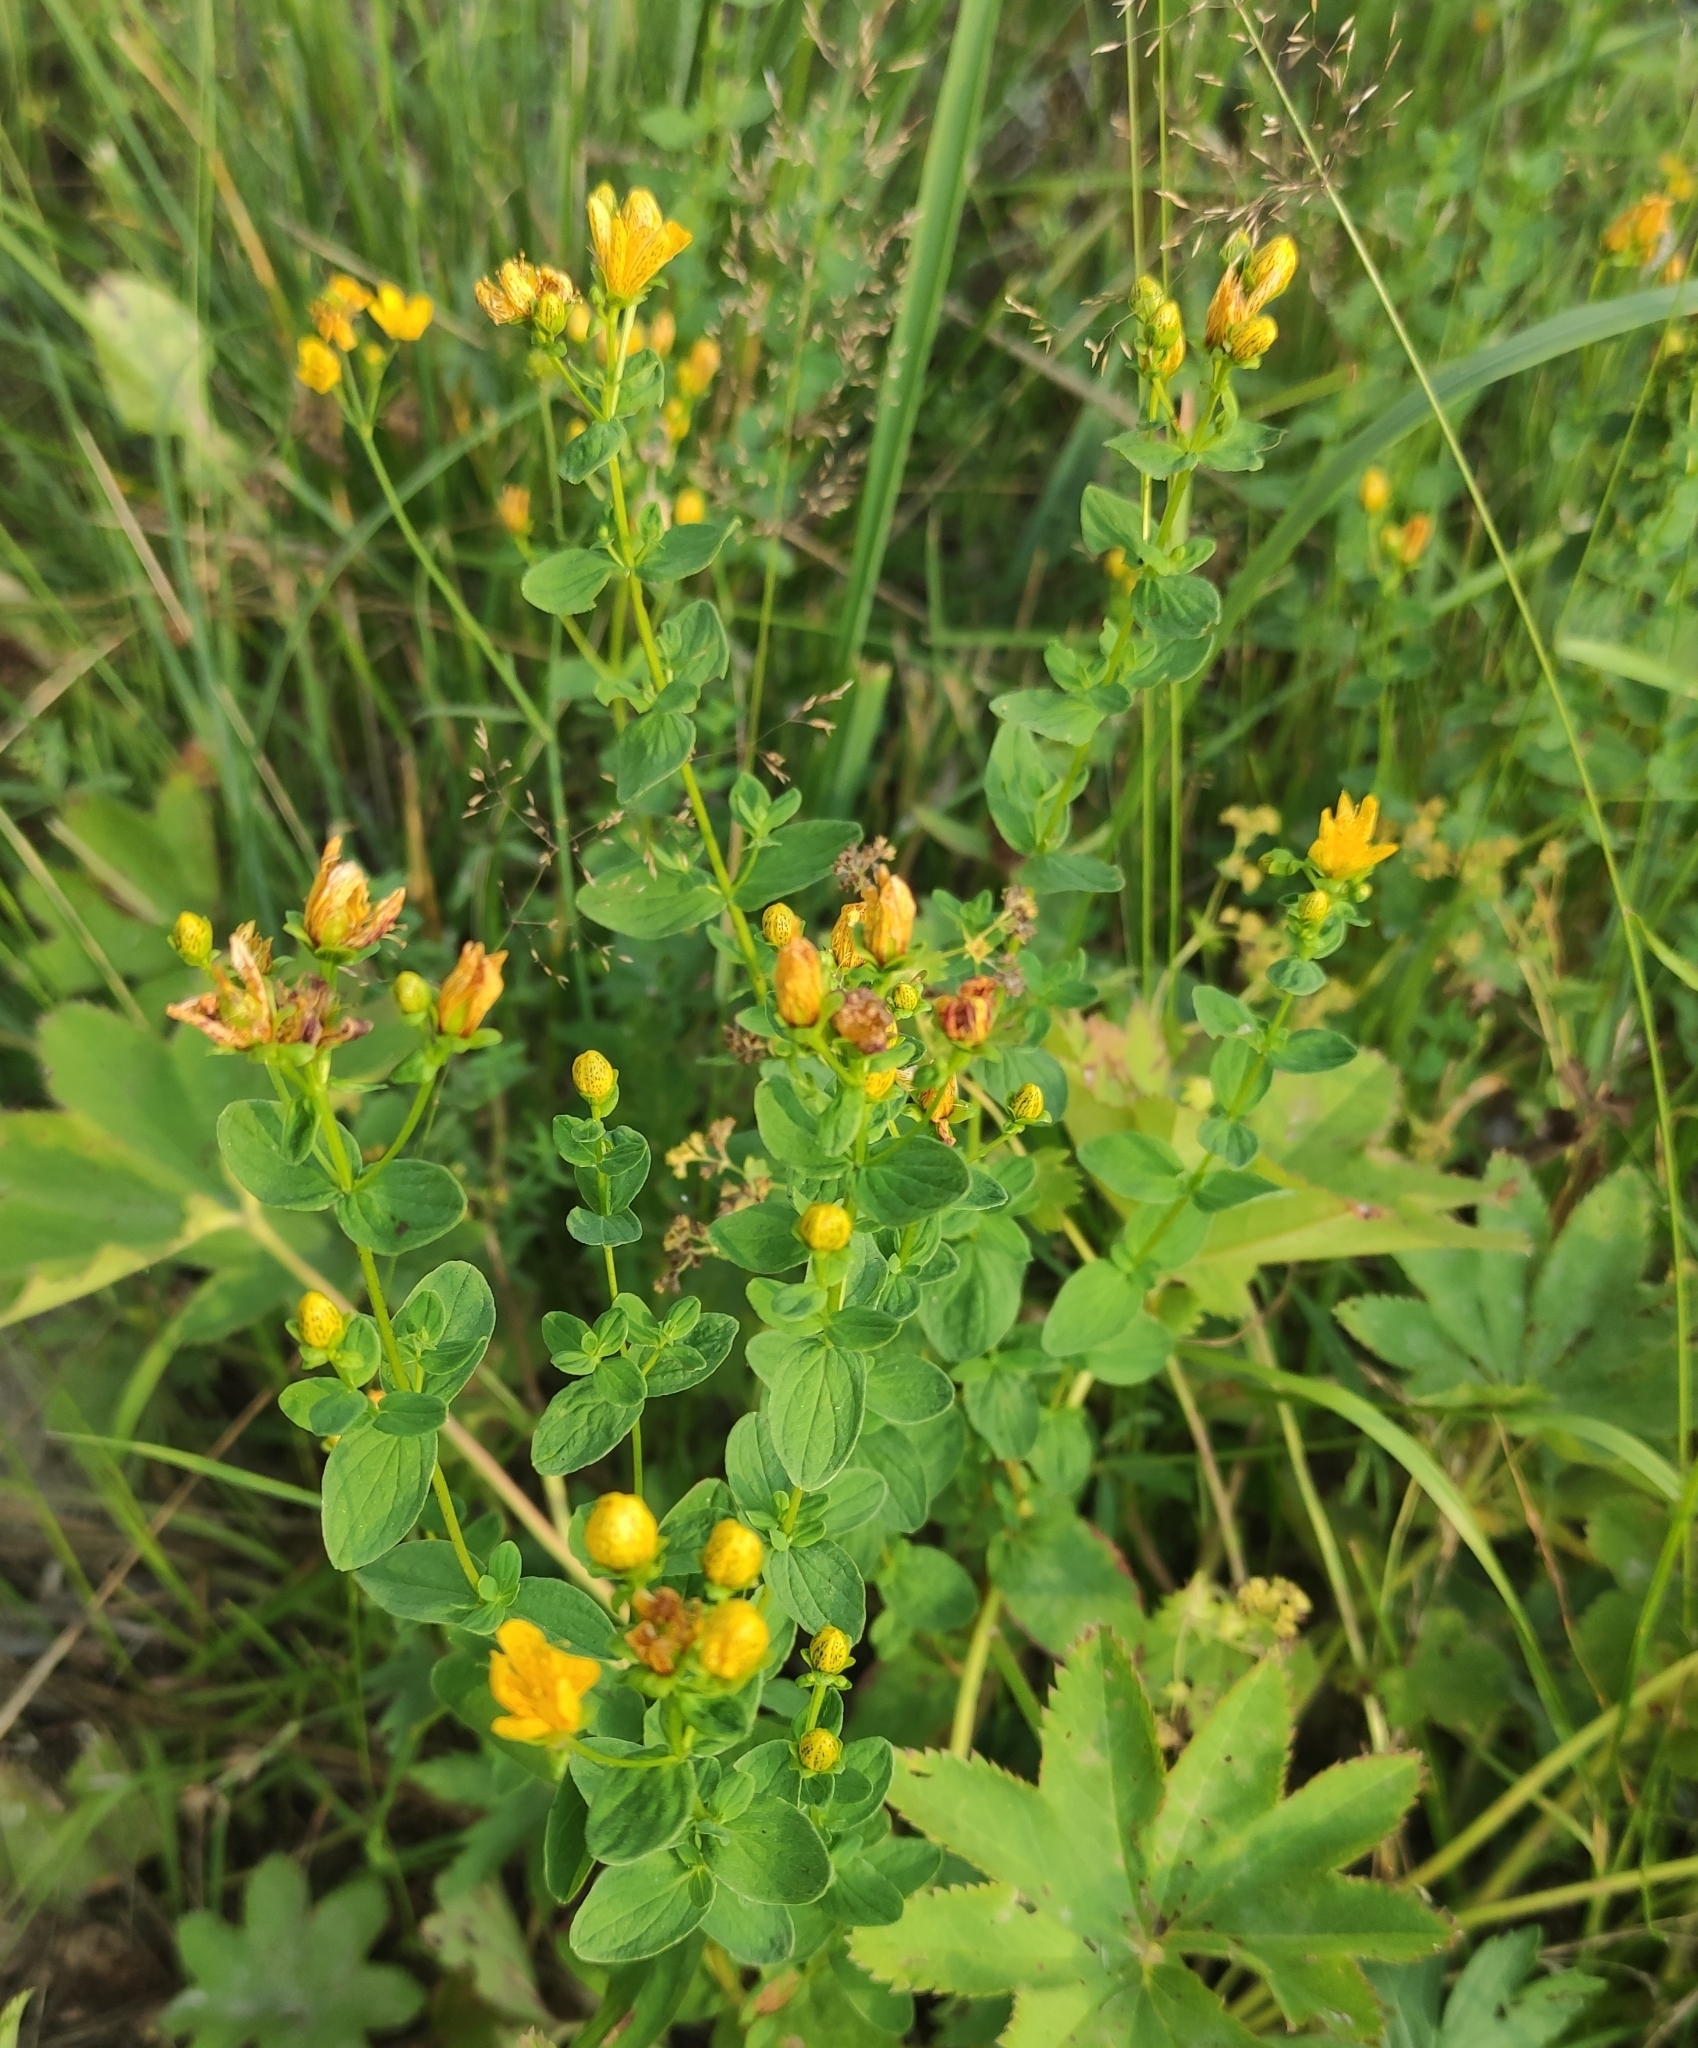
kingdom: Plantae
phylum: Tracheophyta
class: Magnoliopsida
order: Malpighiales
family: Hypericaceae
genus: Hypericum
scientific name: Hypericum maculatum
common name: Imperforate st. john's-wort
